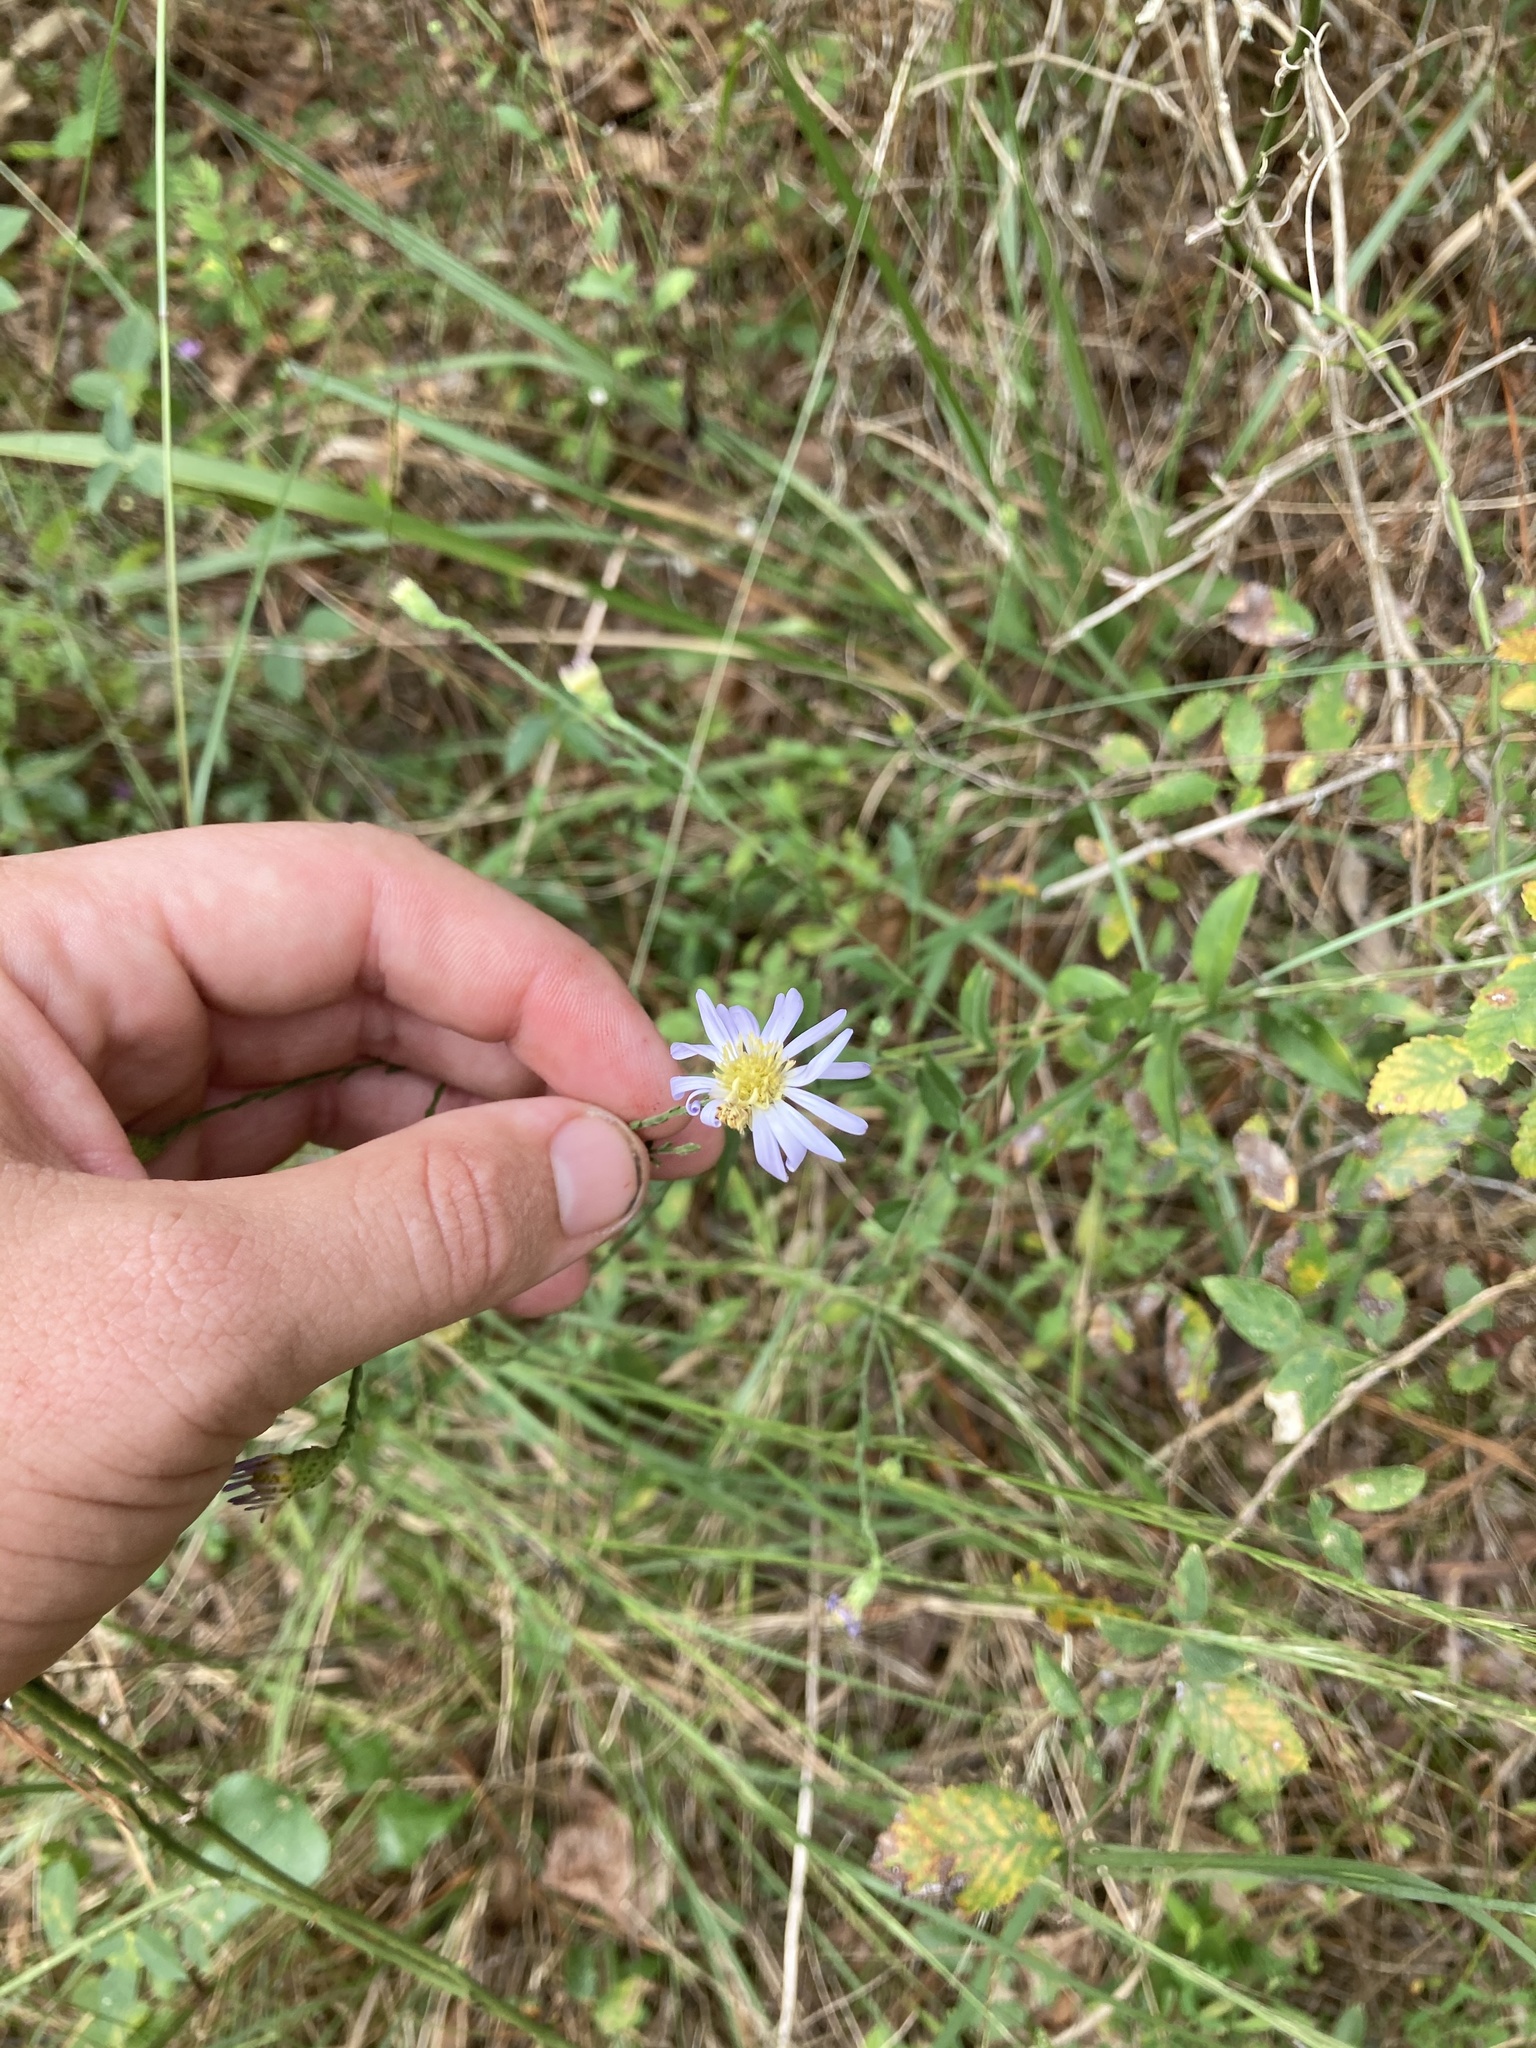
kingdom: Plantae
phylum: Tracheophyta
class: Magnoliopsida
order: Asterales
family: Asteraceae
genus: Symphyotrichum
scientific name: Symphyotrichum patens
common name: Late purple aster
